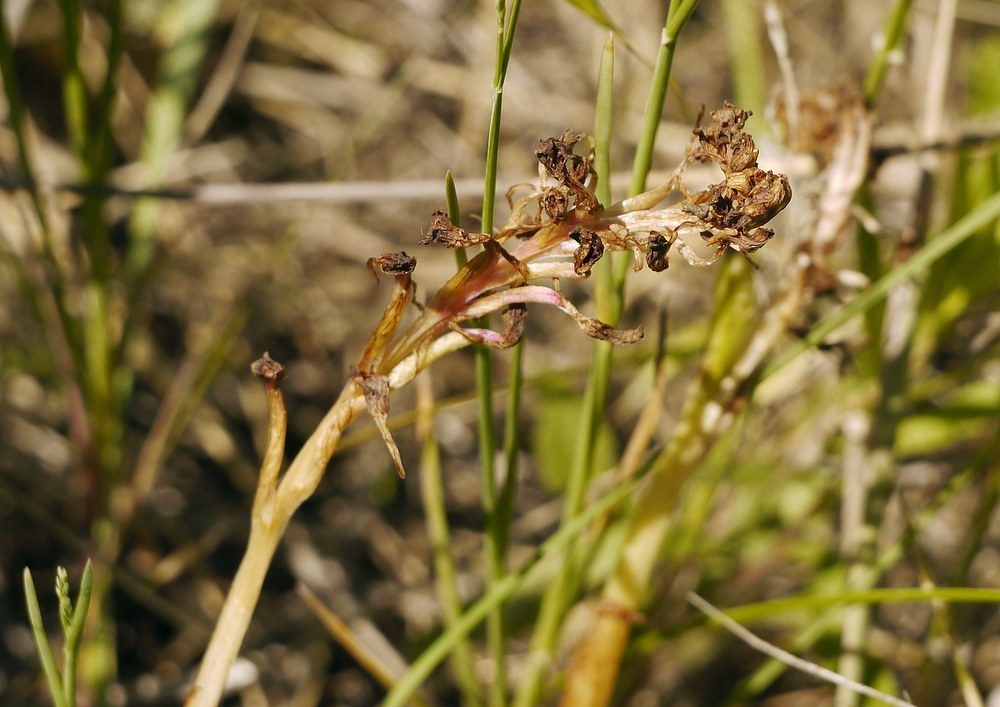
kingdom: Plantae
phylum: Tracheophyta
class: Liliopsida
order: Asparagales
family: Orchidaceae
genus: Anacamptis
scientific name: Anacamptis morio
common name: Green-winged orchid
